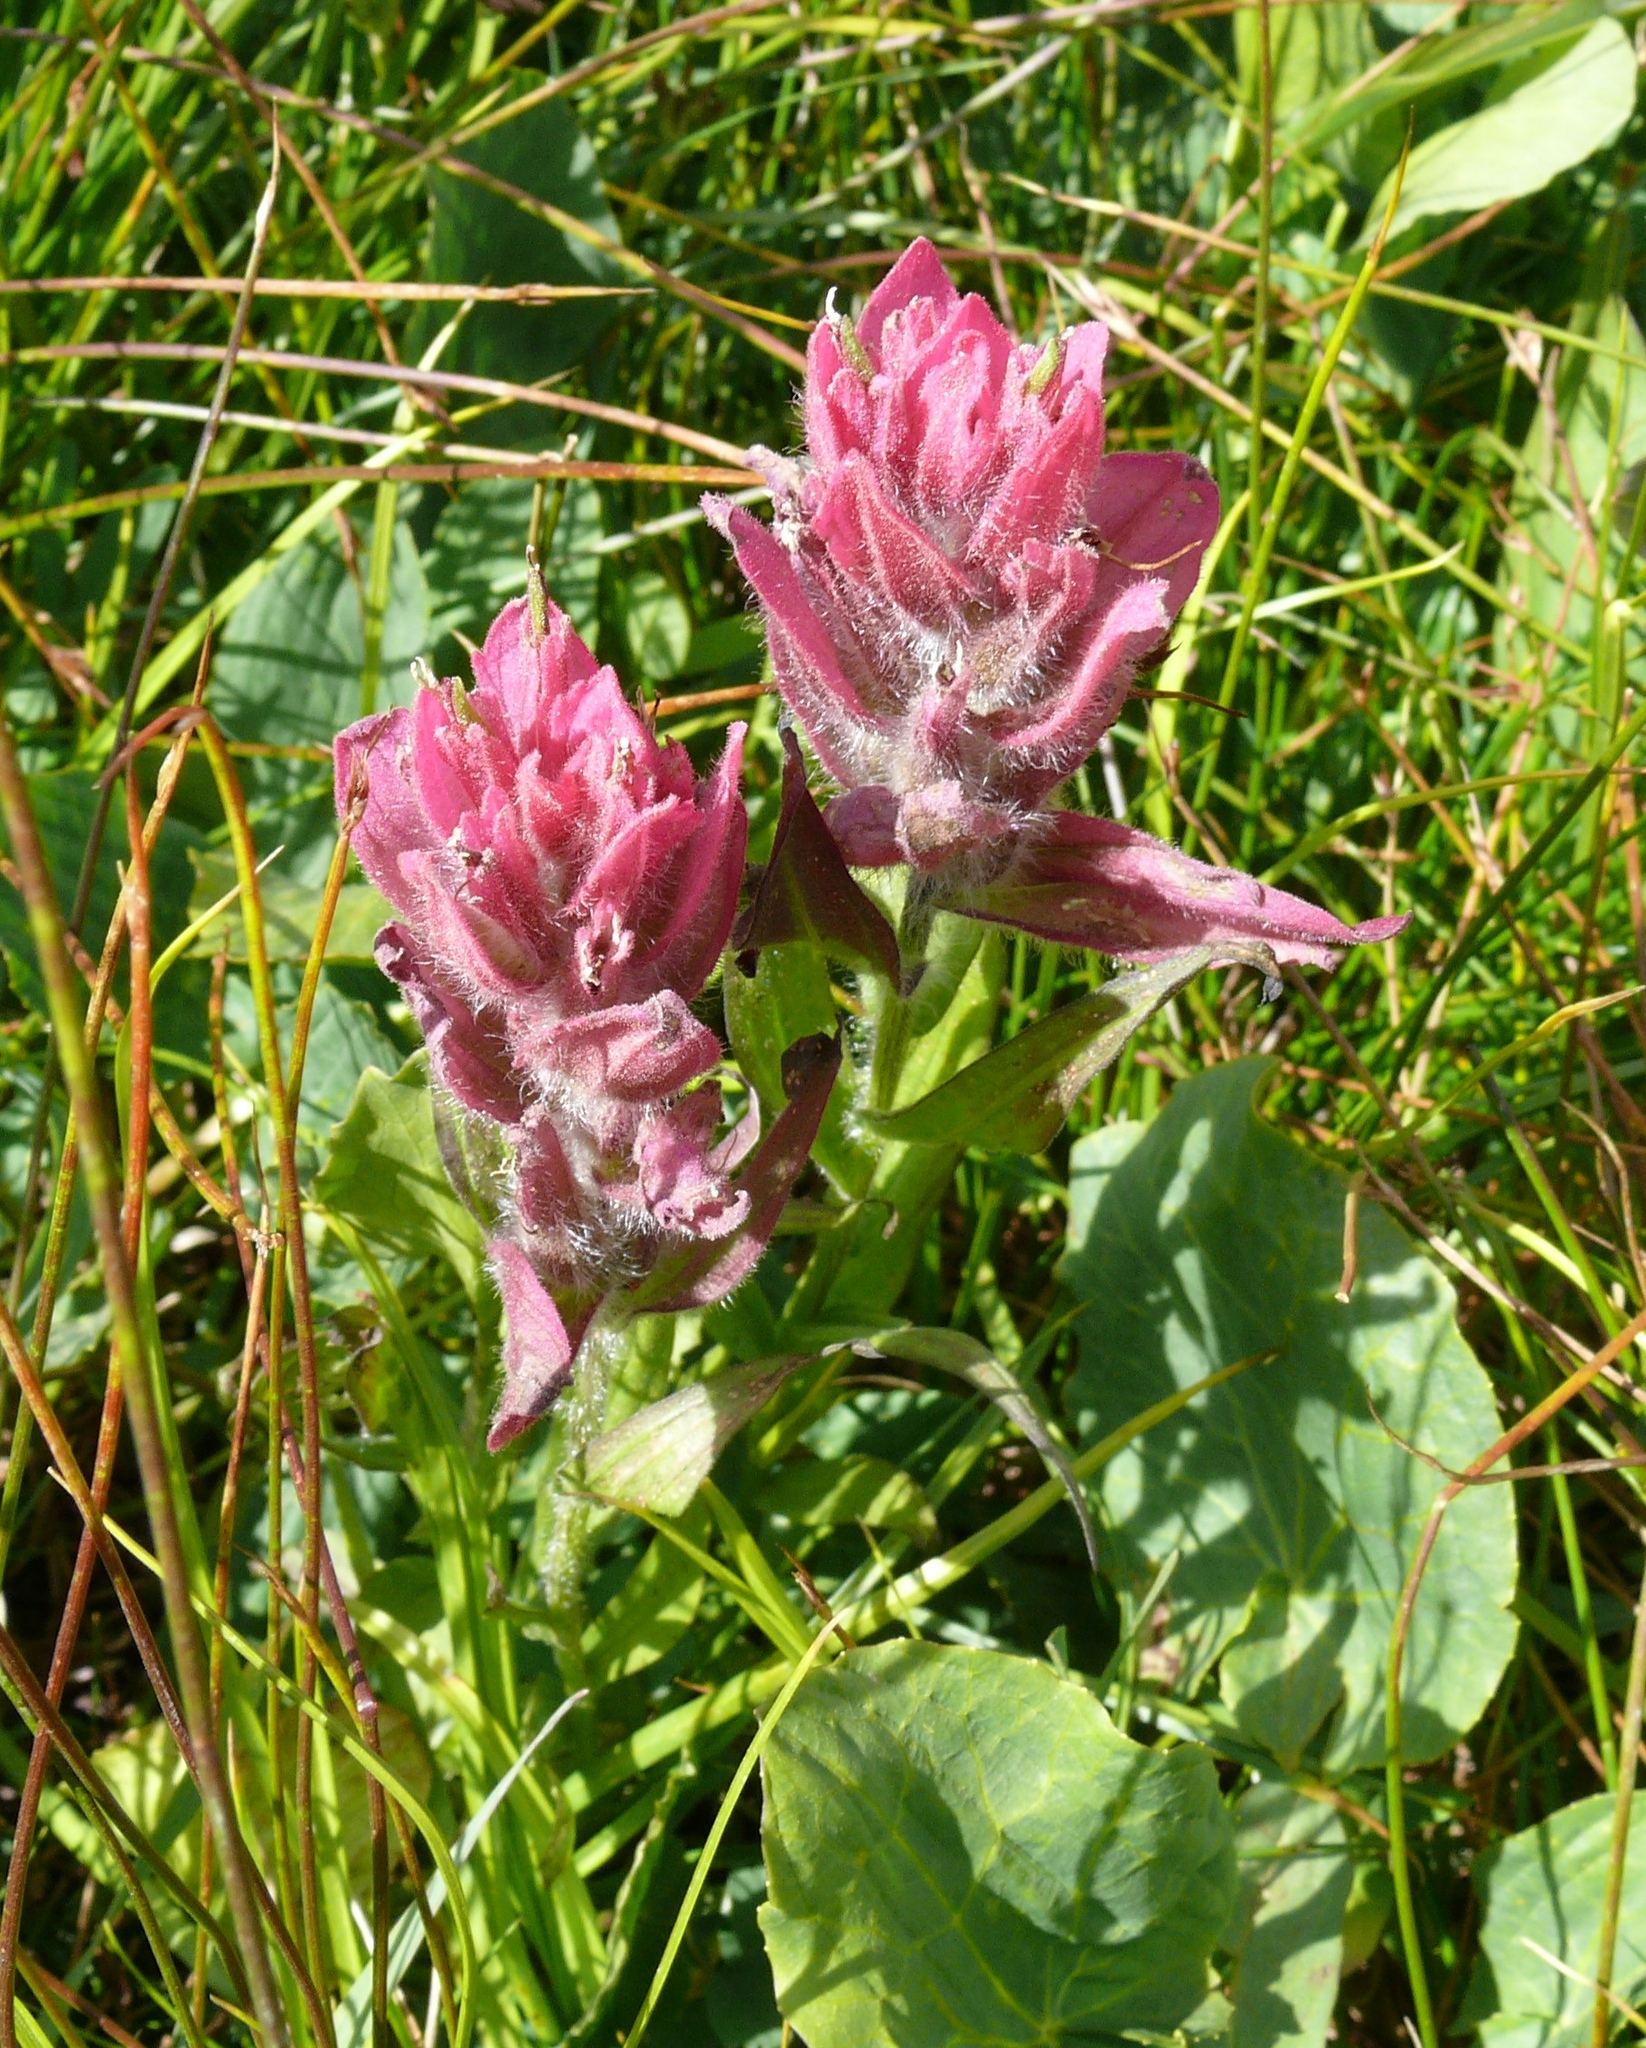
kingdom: Plantae
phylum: Tracheophyta
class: Magnoliopsida
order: Lamiales
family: Orobanchaceae
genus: Castilleja
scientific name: Castilleja rhexifolia
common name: Rocky mountain paintbrush
